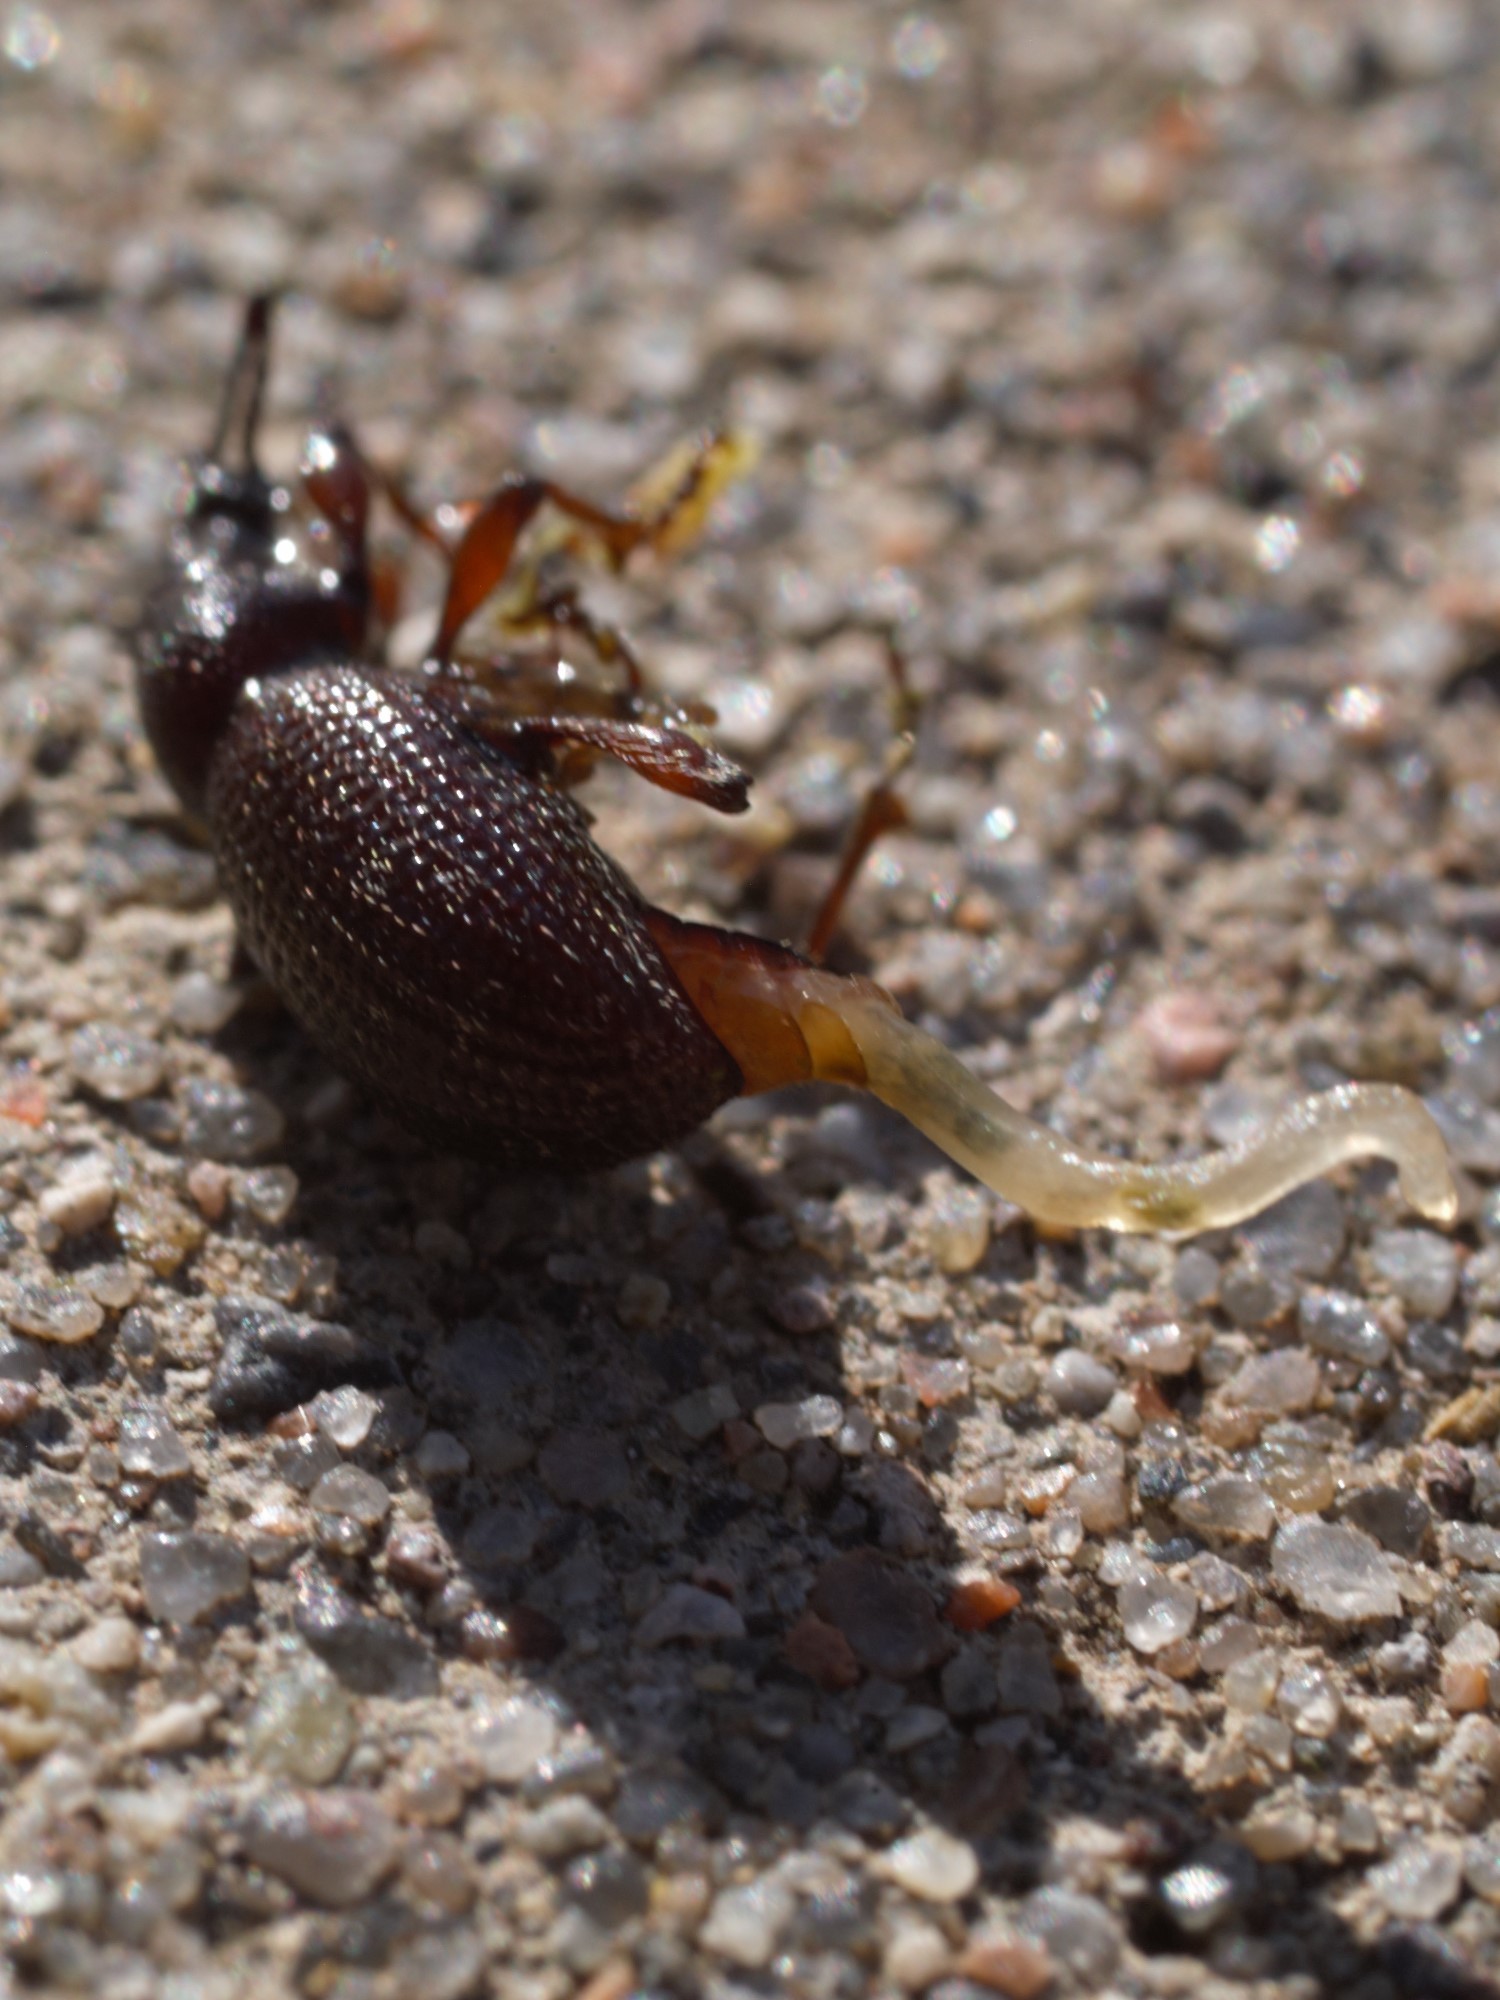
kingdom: Animalia
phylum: Arthropoda
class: Insecta
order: Coleoptera
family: Curculionidae
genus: Otiorhynchus
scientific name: Otiorhynchus cribricollis
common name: Weevil
